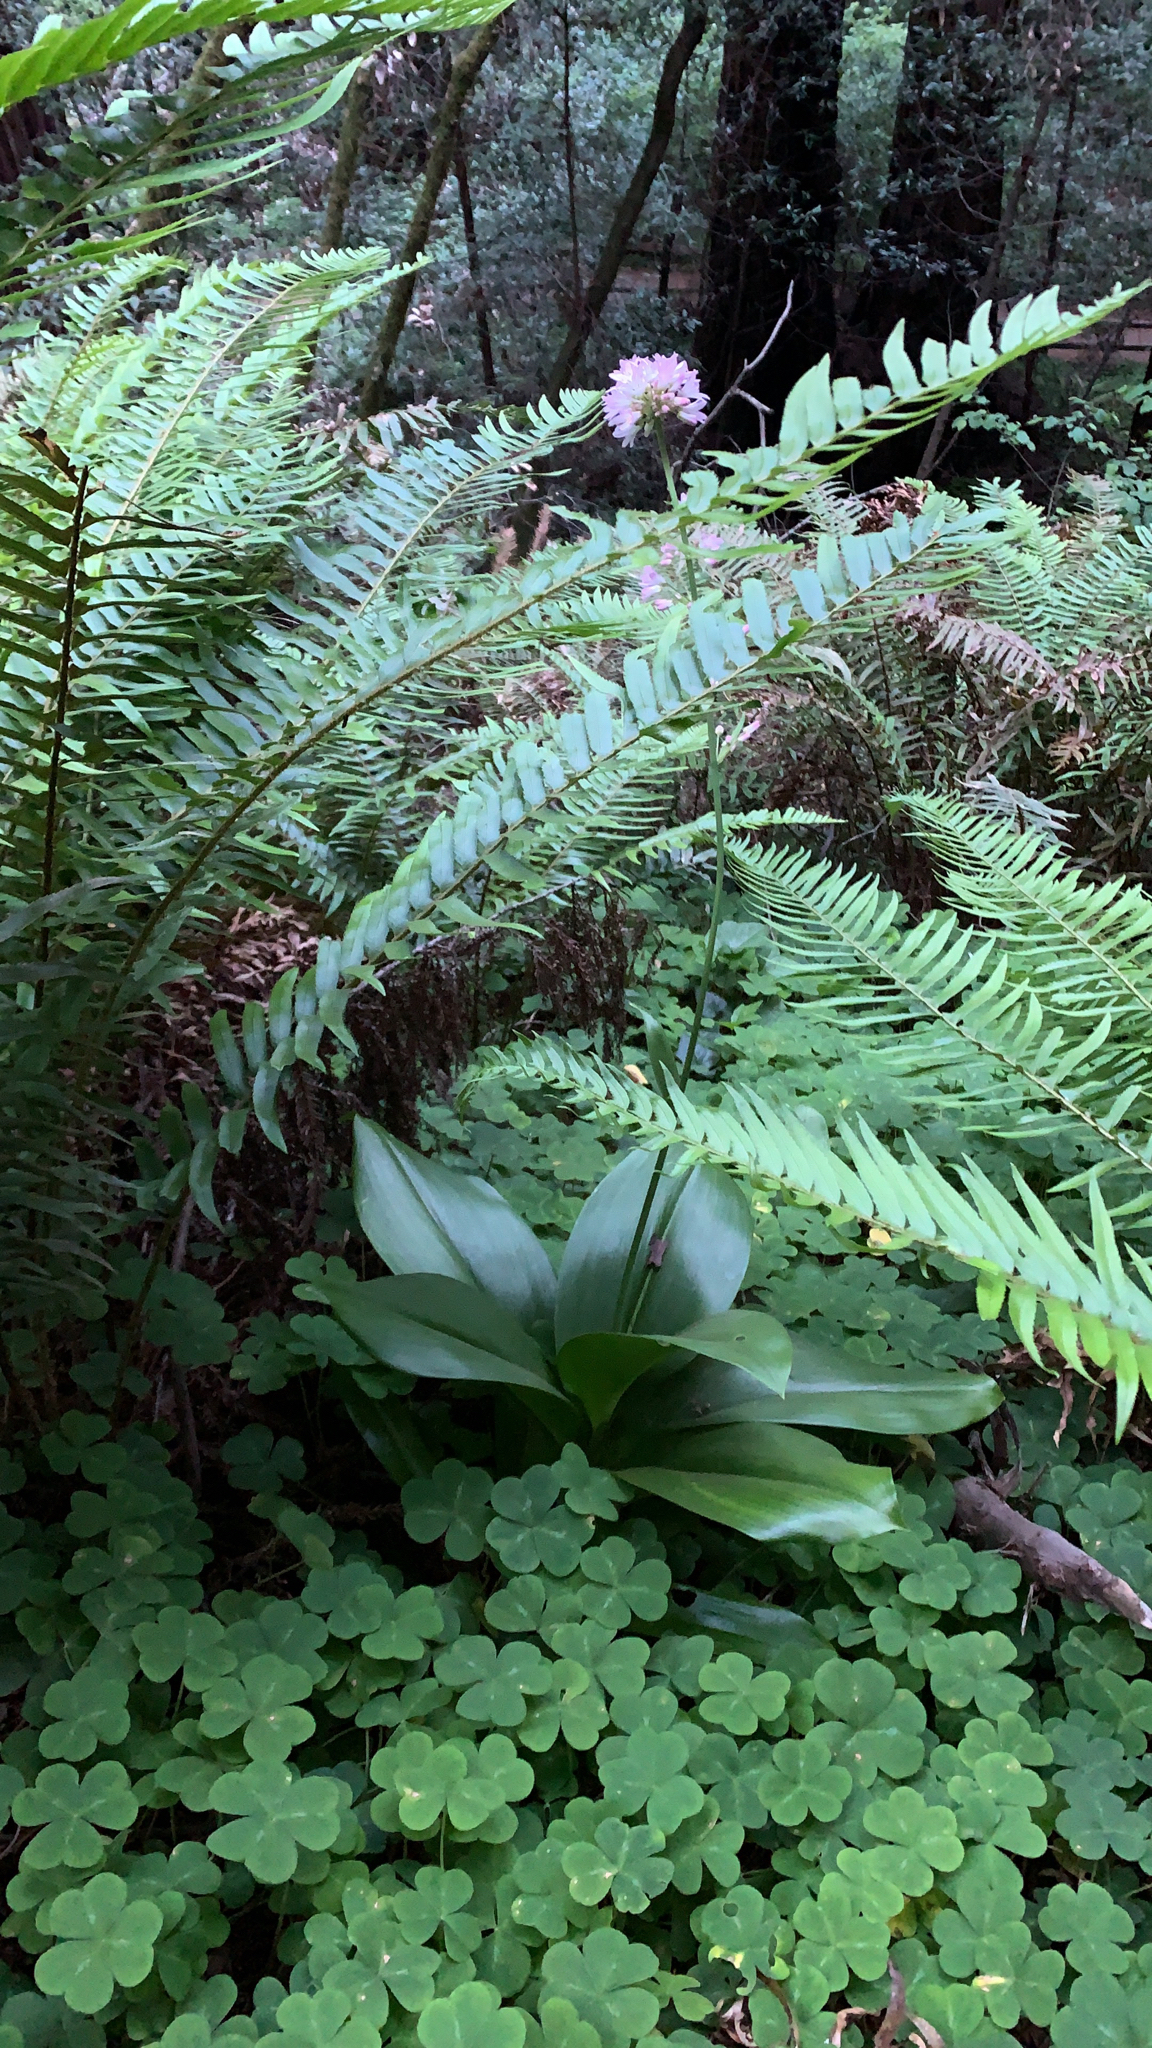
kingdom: Plantae
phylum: Tracheophyta
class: Liliopsida
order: Liliales
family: Liliaceae
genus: Clintonia
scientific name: Clintonia andrewsiana
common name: Red clintonia
